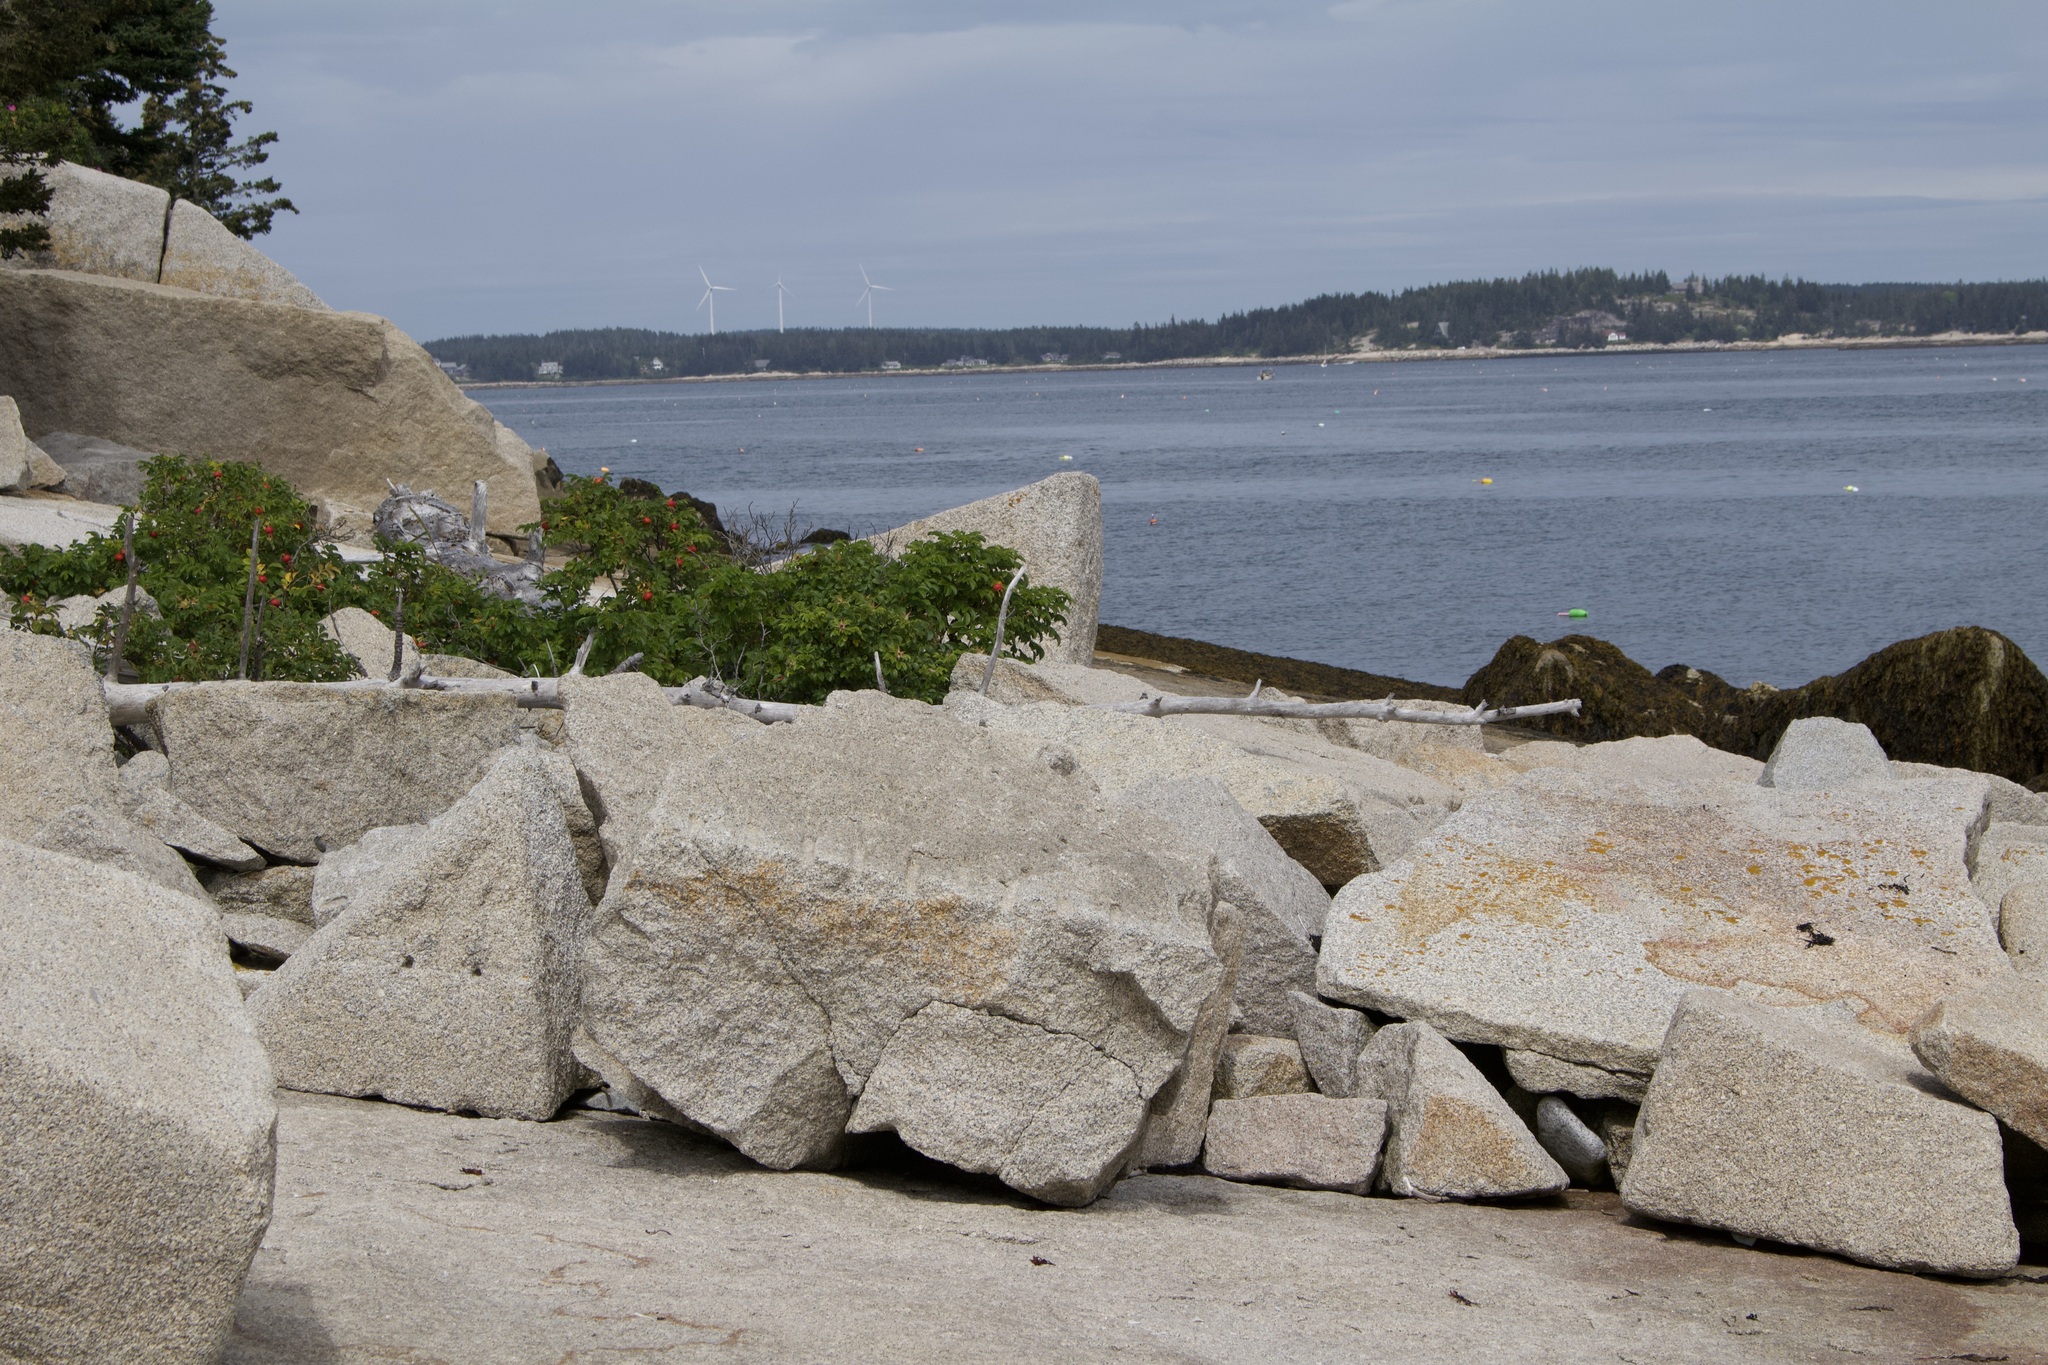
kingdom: Plantae
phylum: Tracheophyta
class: Magnoliopsida
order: Rosales
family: Rosaceae
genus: Rosa
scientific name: Rosa rugosa
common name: Japanese rose
